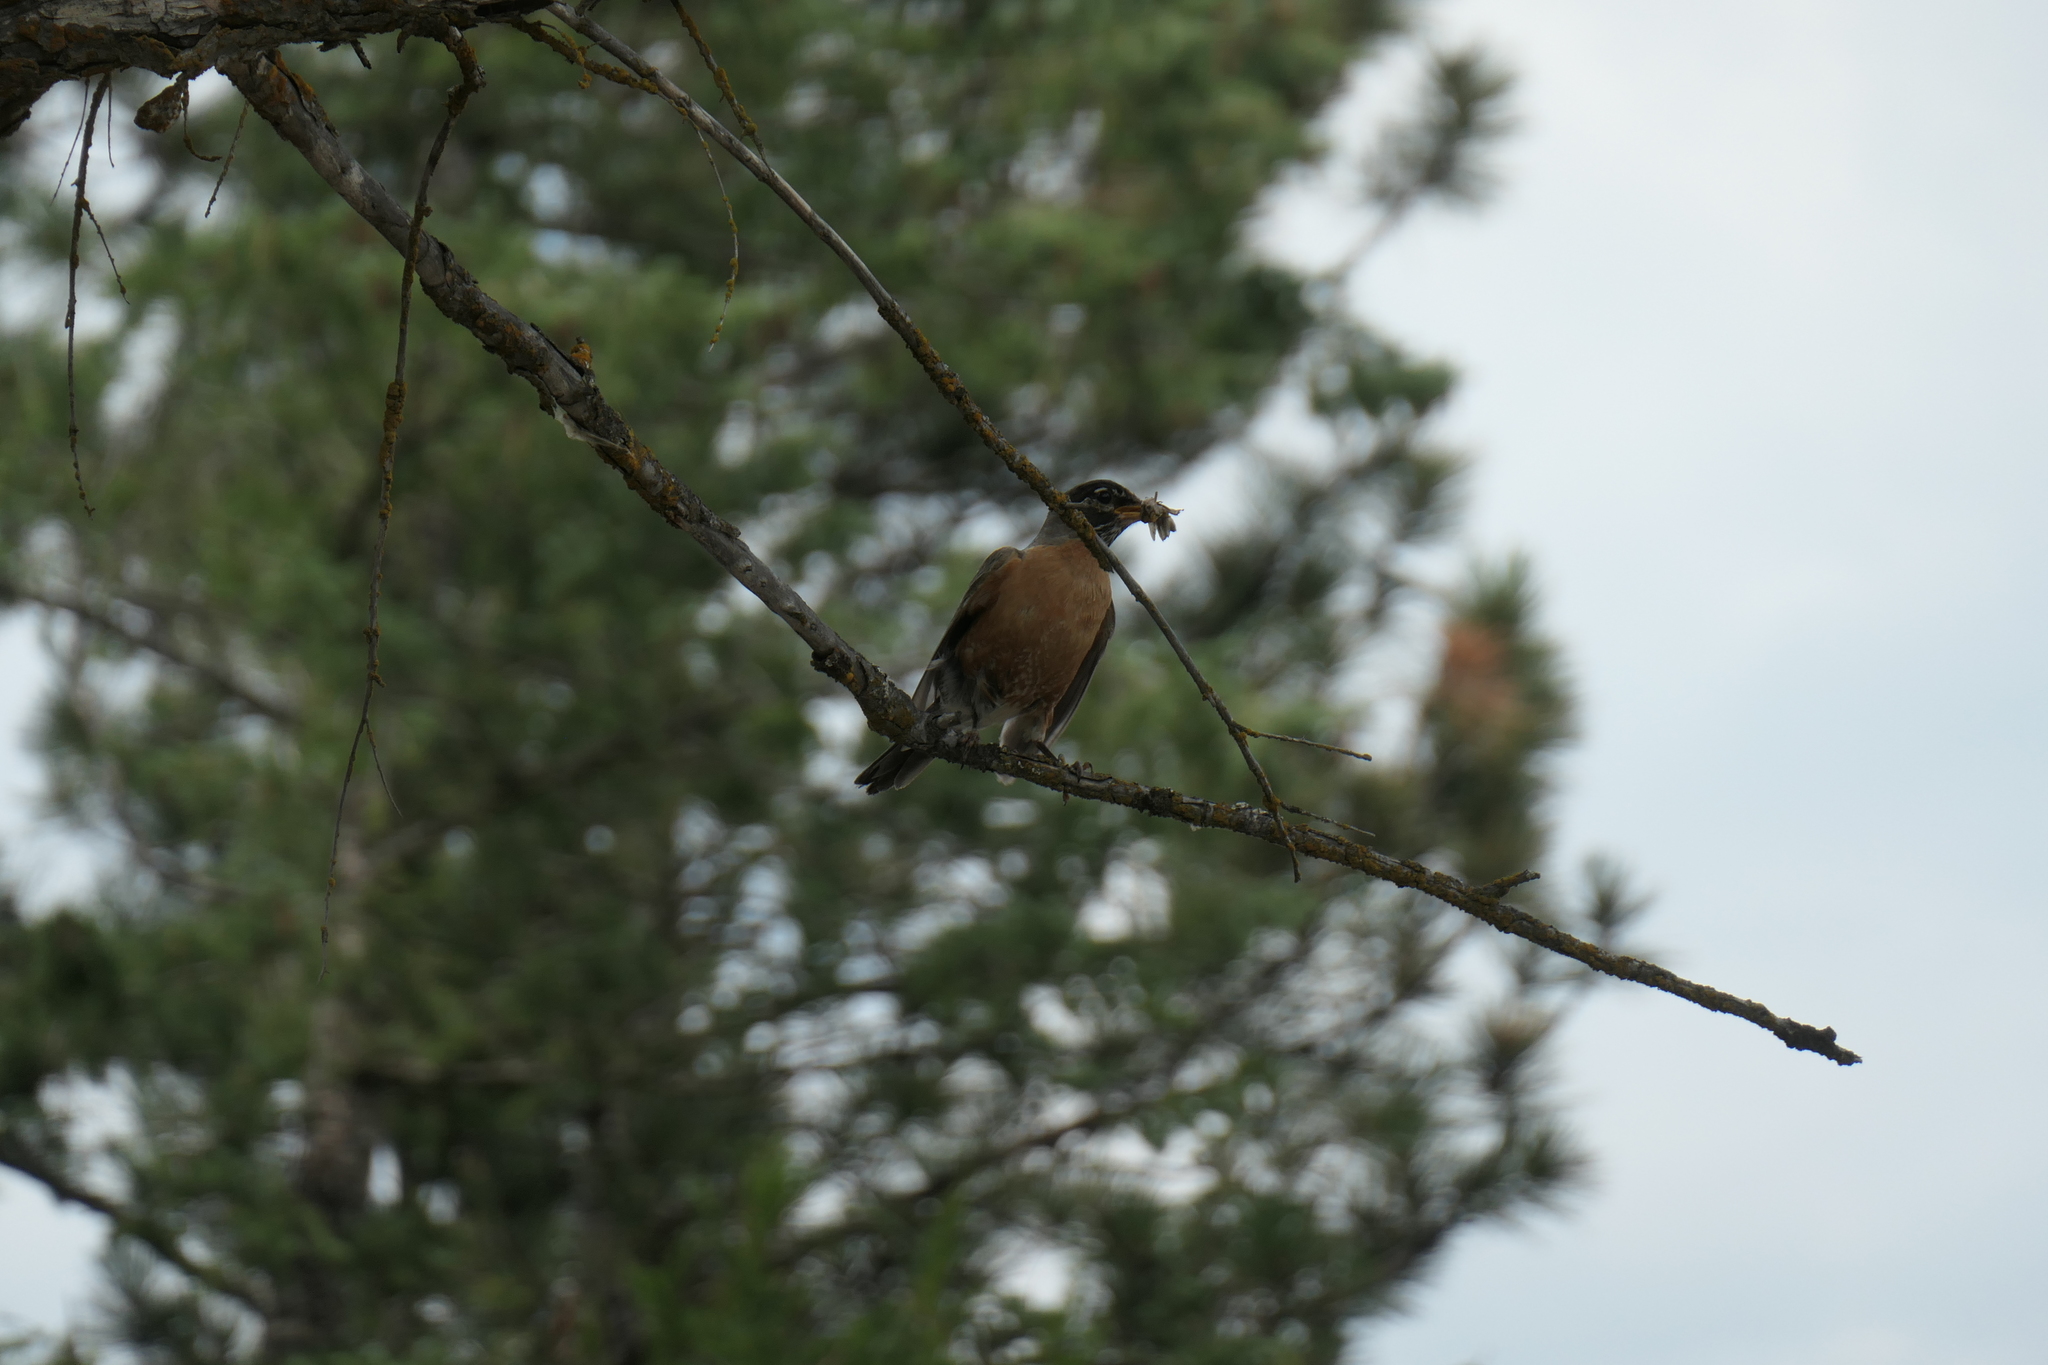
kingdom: Animalia
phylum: Chordata
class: Aves
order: Passeriformes
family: Turdidae
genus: Turdus
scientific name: Turdus migratorius
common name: American robin
